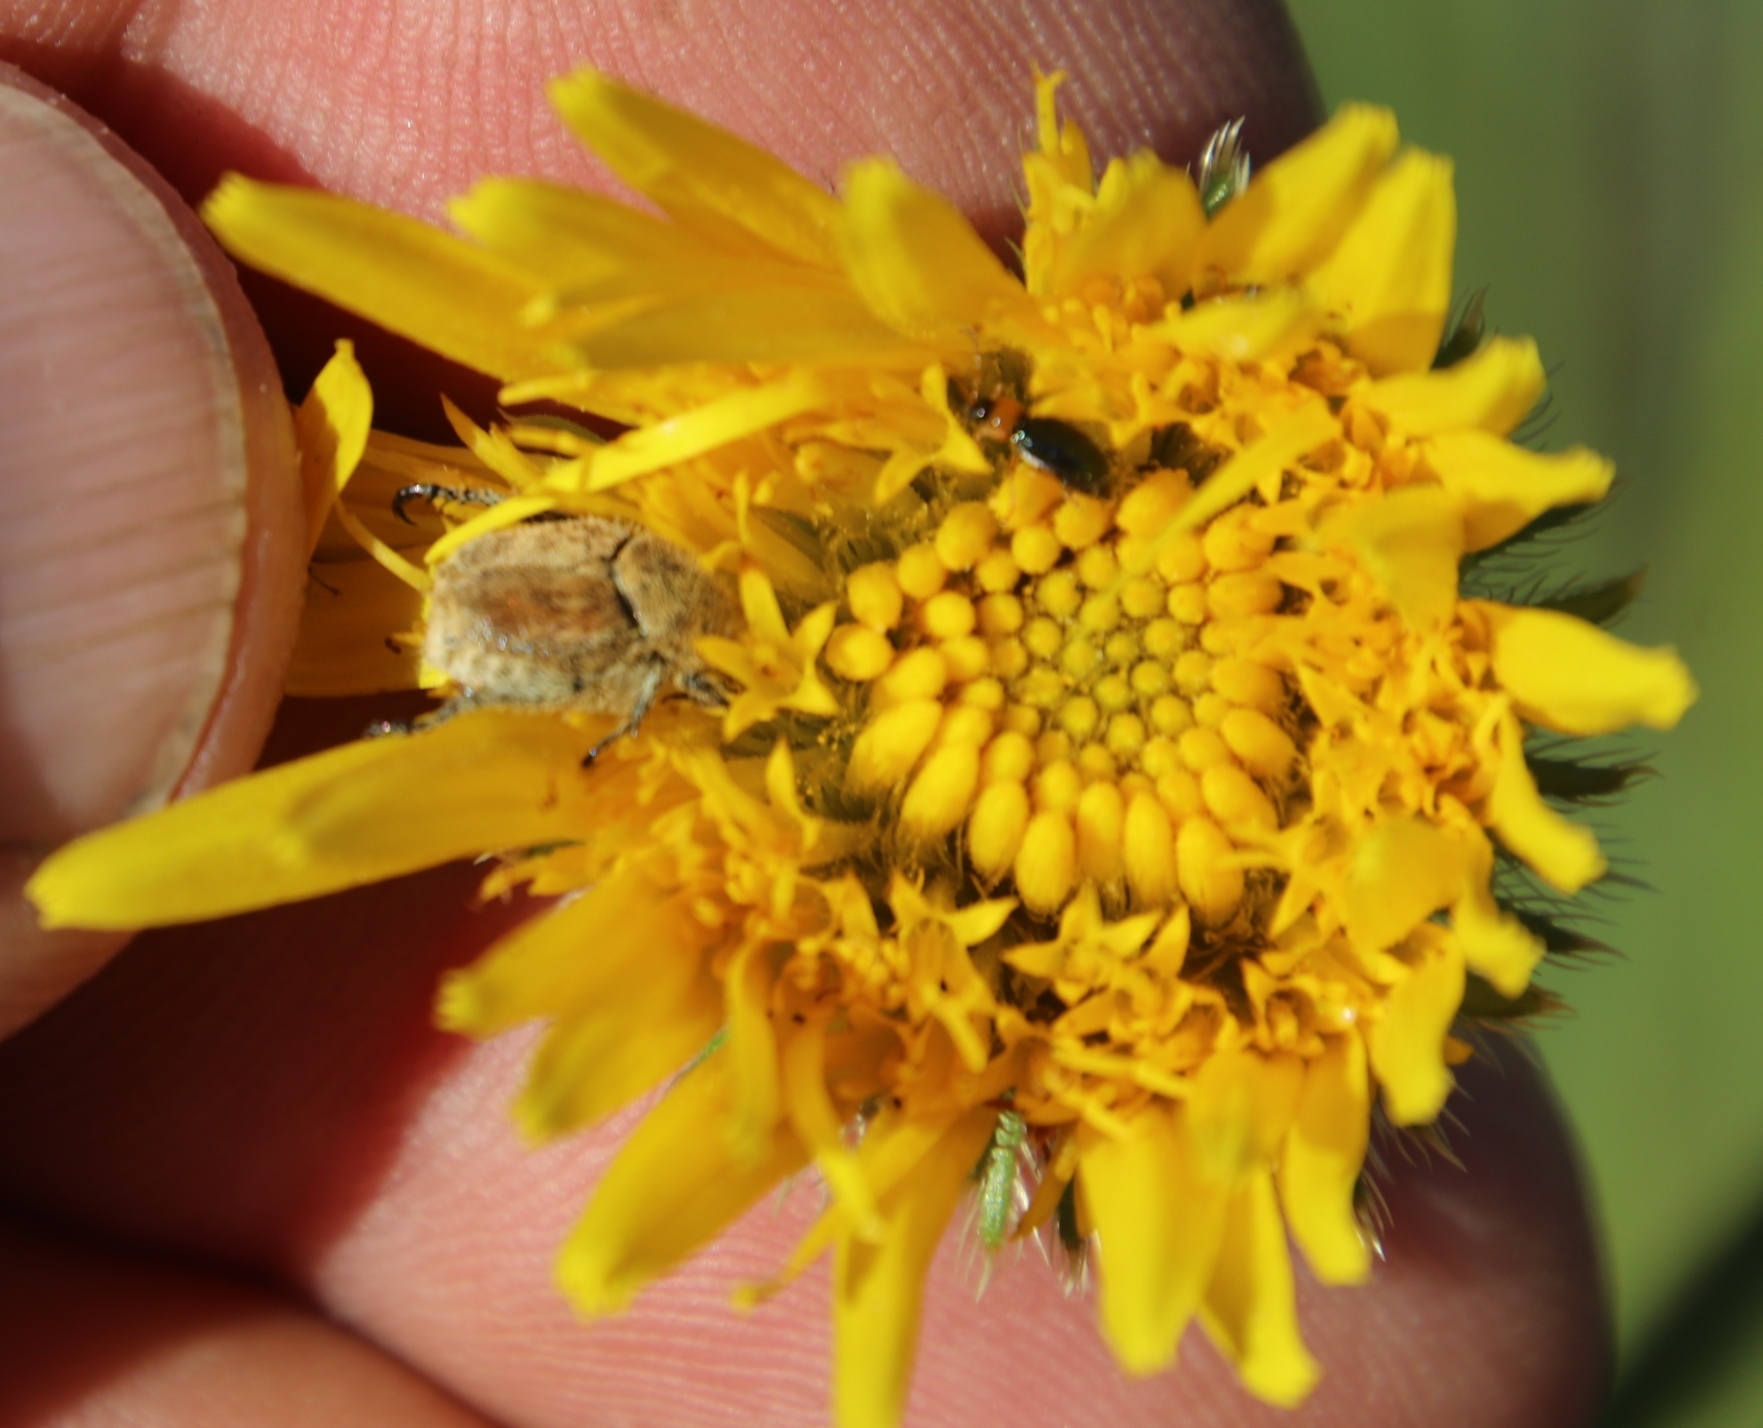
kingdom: Plantae
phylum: Tracheophyta
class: Magnoliopsida
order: Asterales
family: Asteraceae
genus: Berkheya
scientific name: Berkheya setifera
